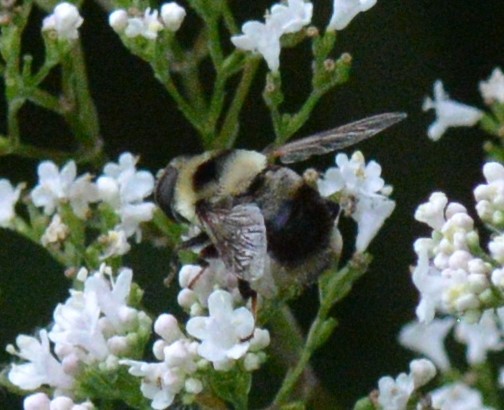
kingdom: Animalia
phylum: Arthropoda
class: Insecta
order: Diptera
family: Syrphidae
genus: Eristalis
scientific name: Eristalis flavipes
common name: Orange-legged drone fly
